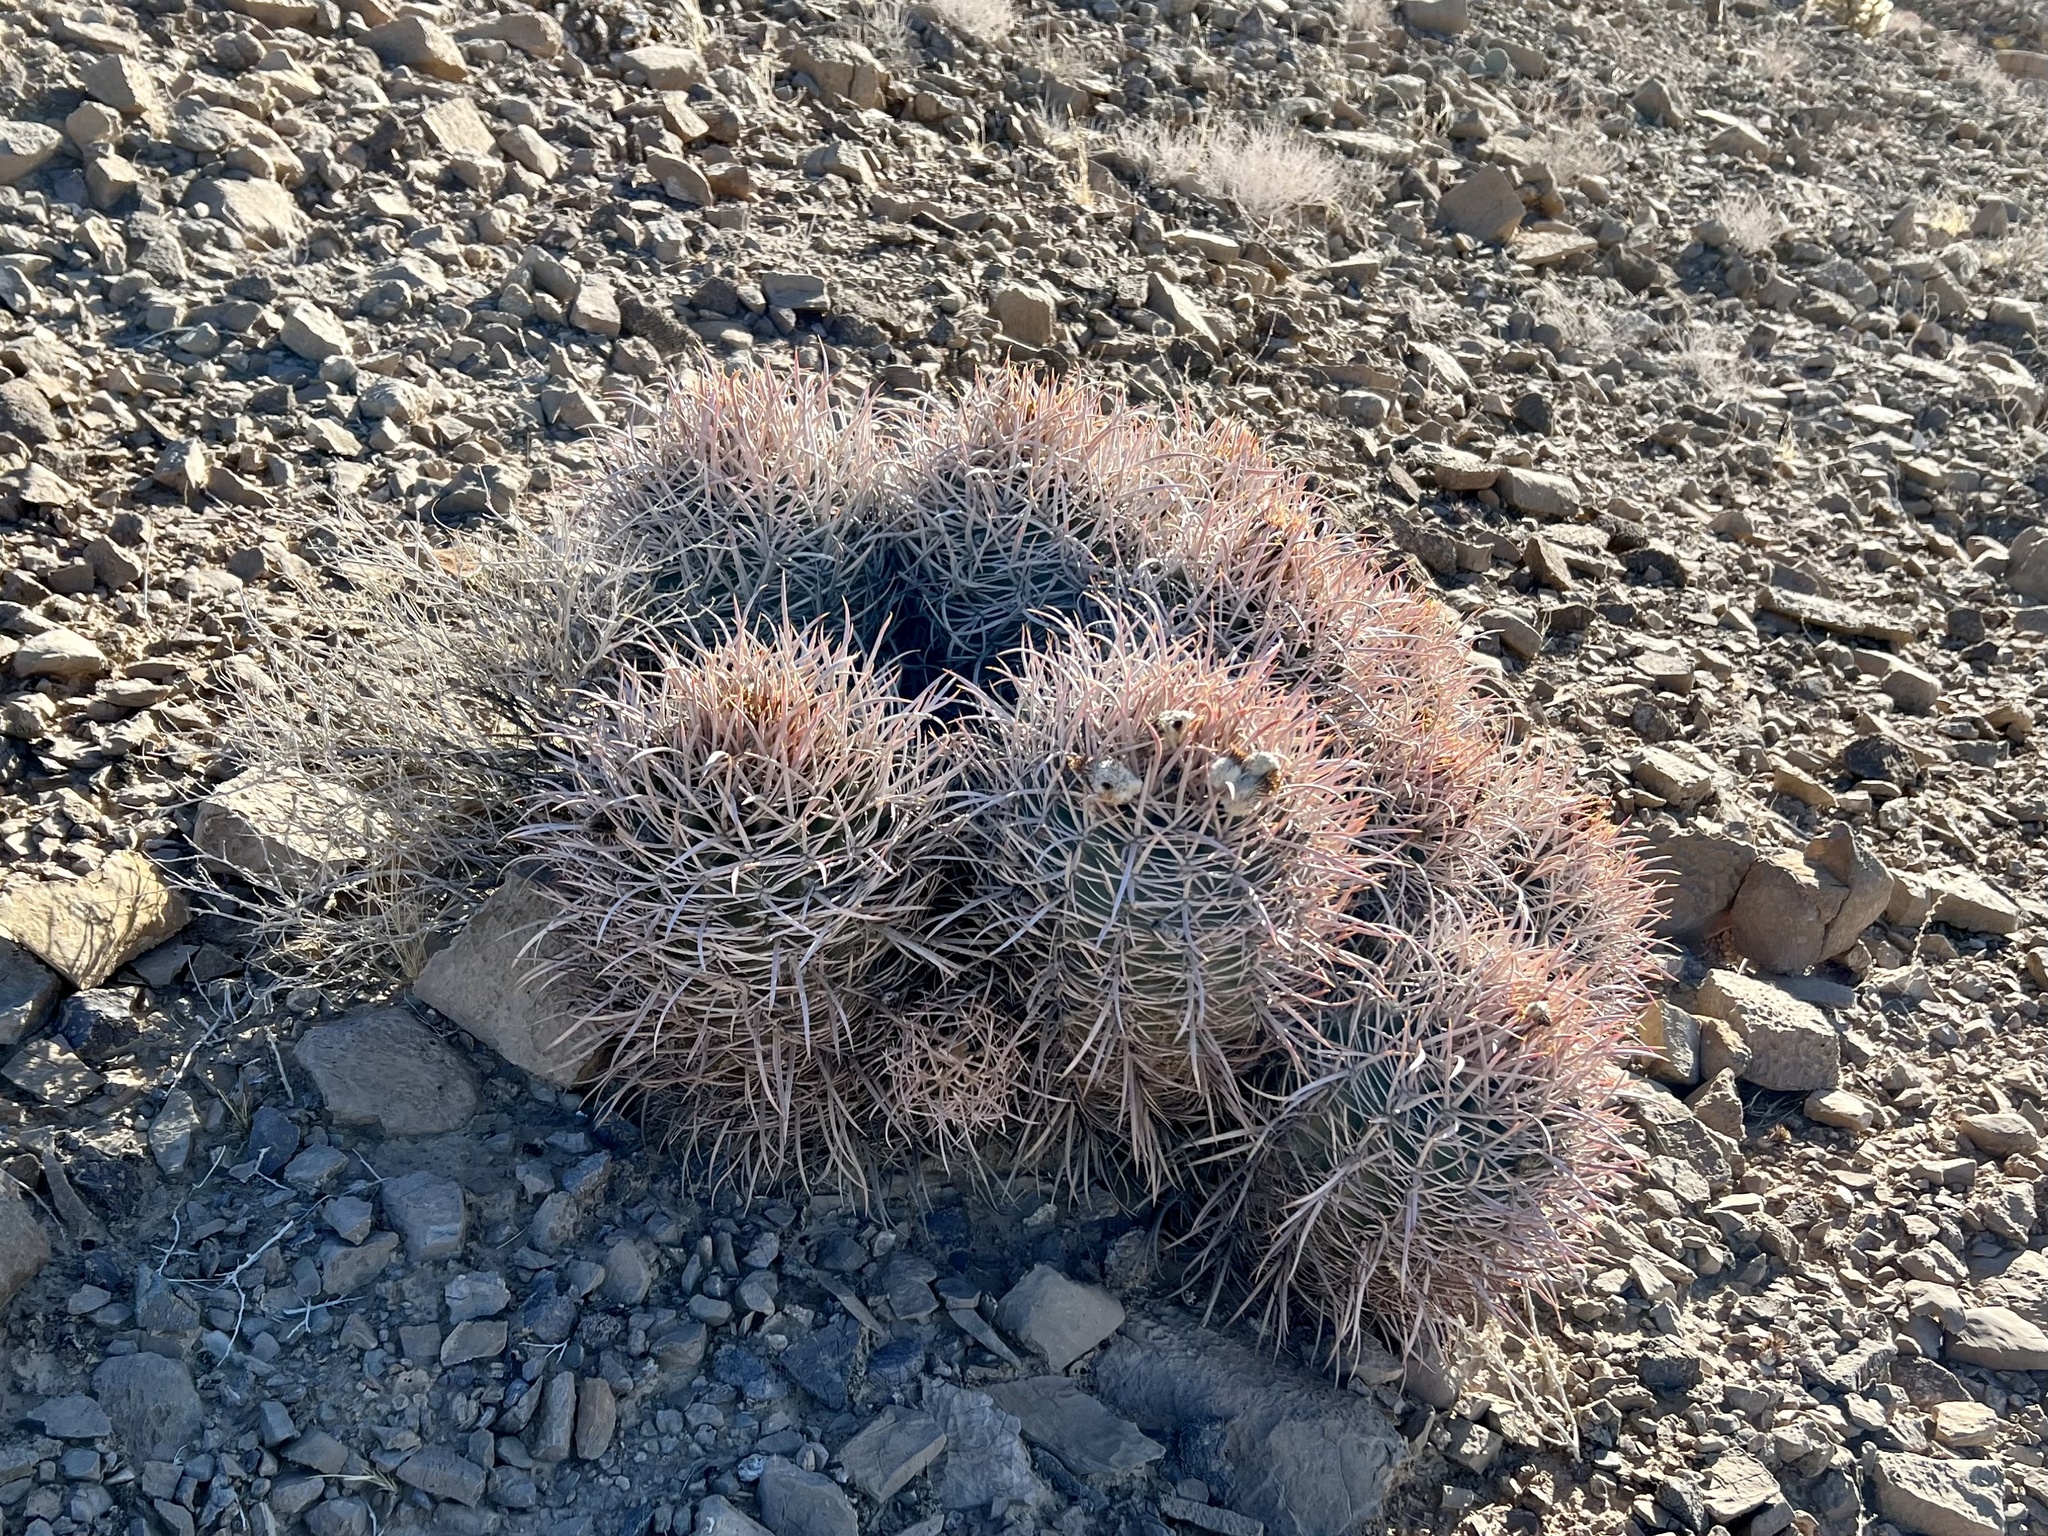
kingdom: Plantae
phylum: Tracheophyta
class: Magnoliopsida
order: Caryophyllales
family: Cactaceae
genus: Echinocactus
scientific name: Echinocactus polycephalus
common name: Cottontop cactus
